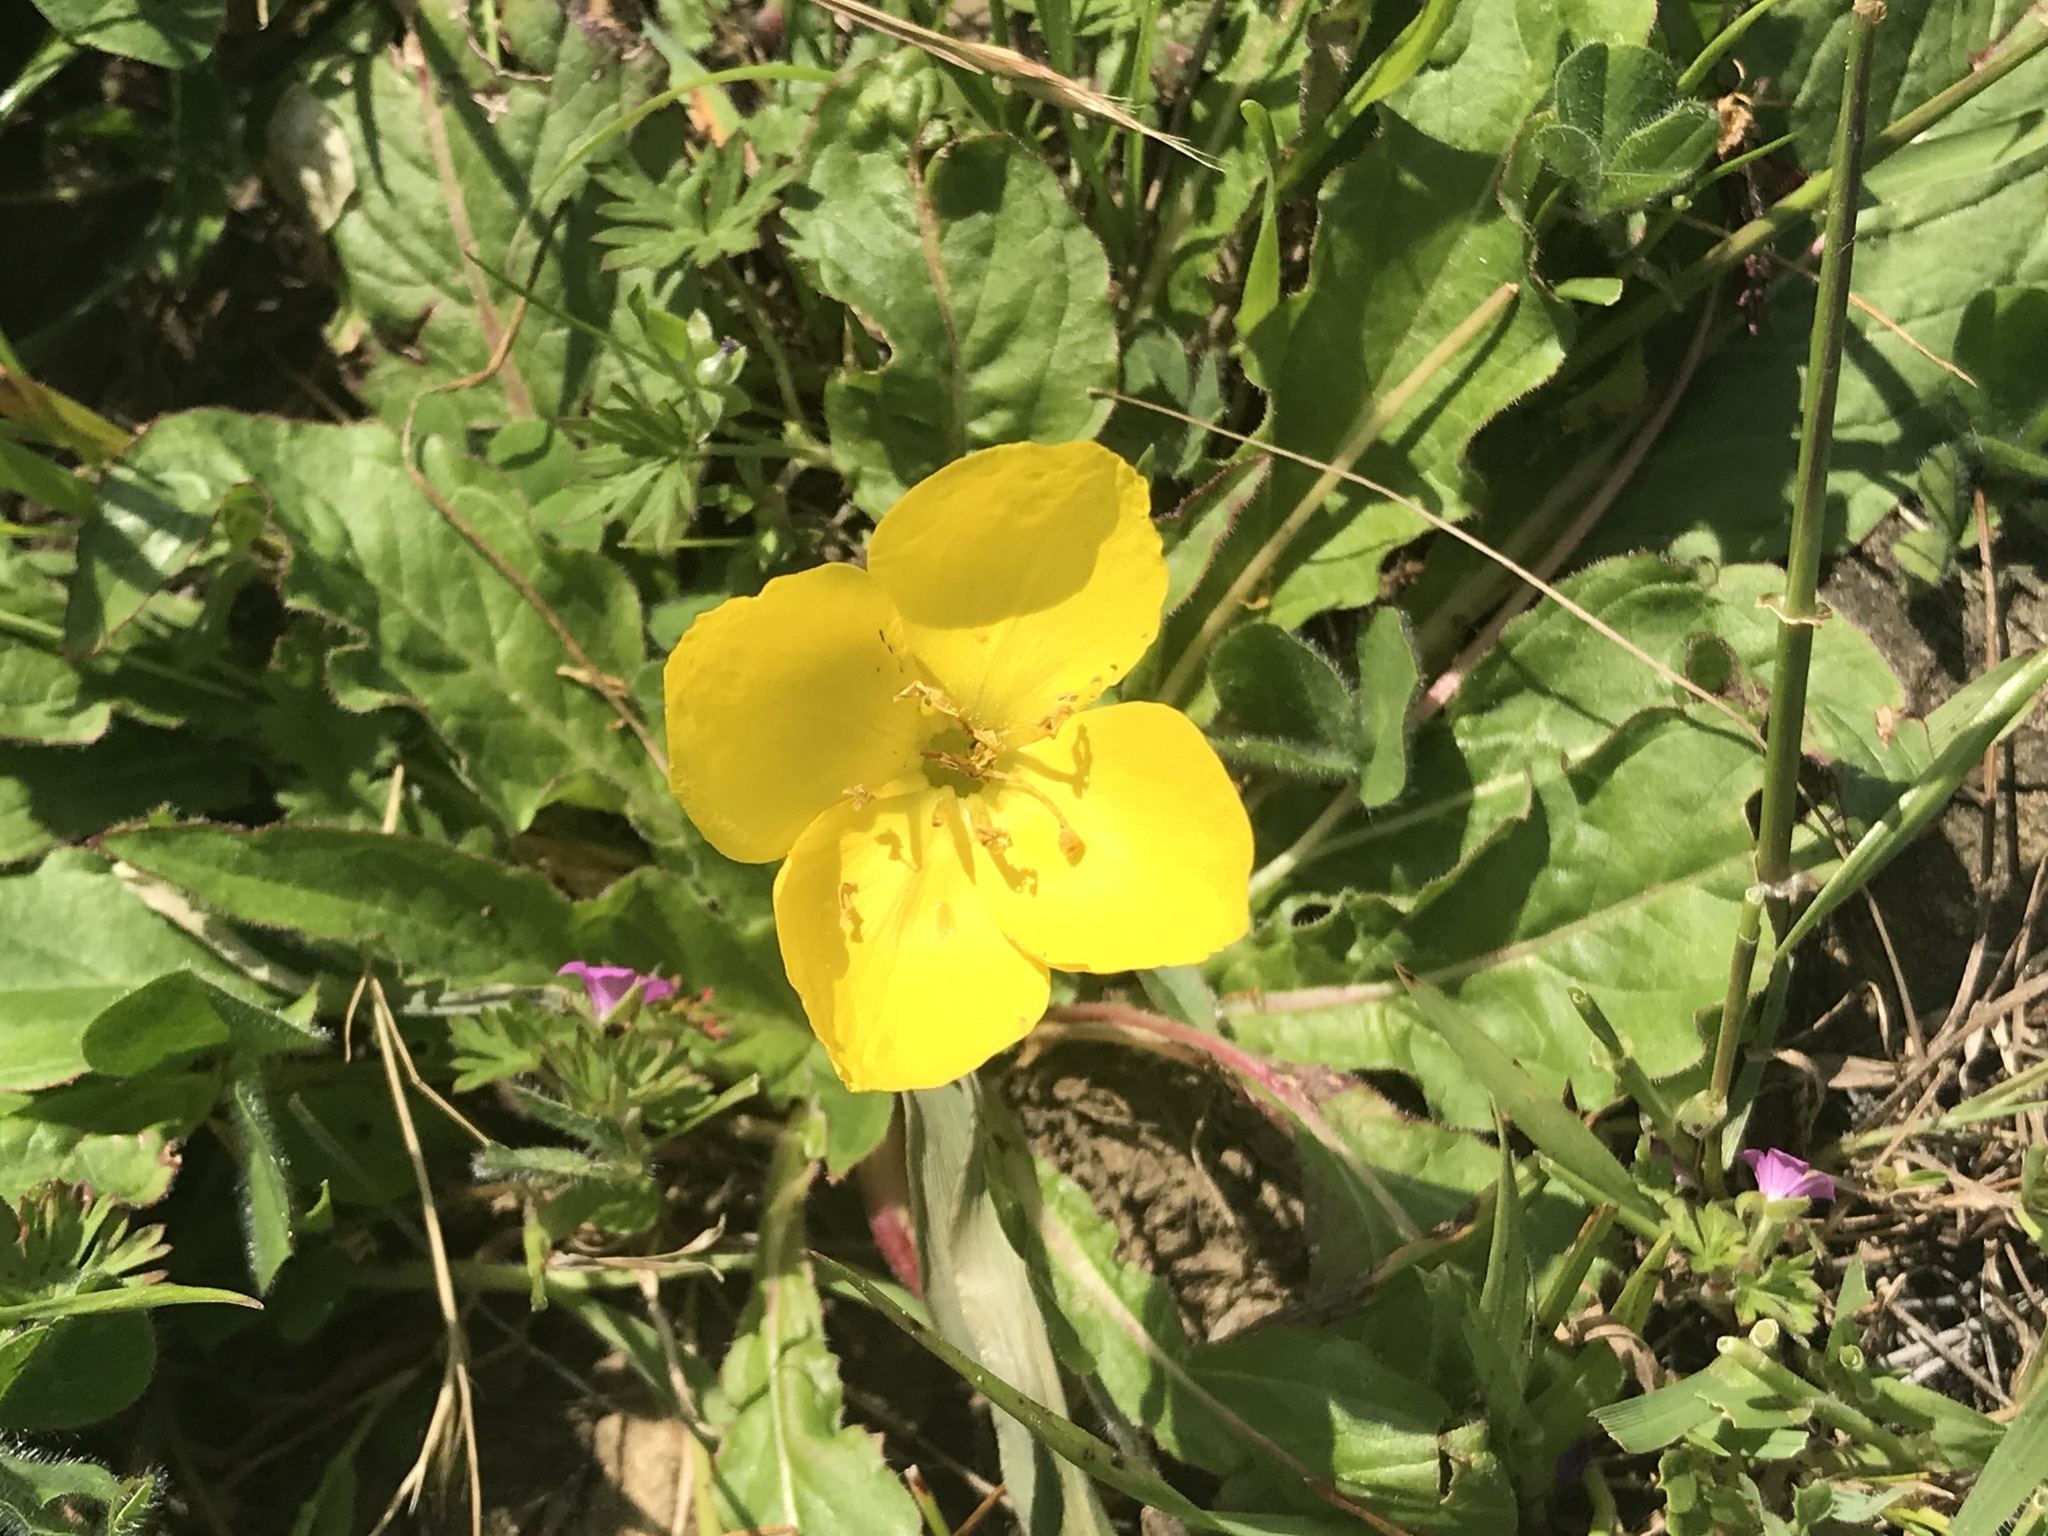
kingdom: Plantae
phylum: Tracheophyta
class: Magnoliopsida
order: Myrtales
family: Onagraceae
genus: Taraxia
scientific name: Taraxia ovata
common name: Goldeneggs
